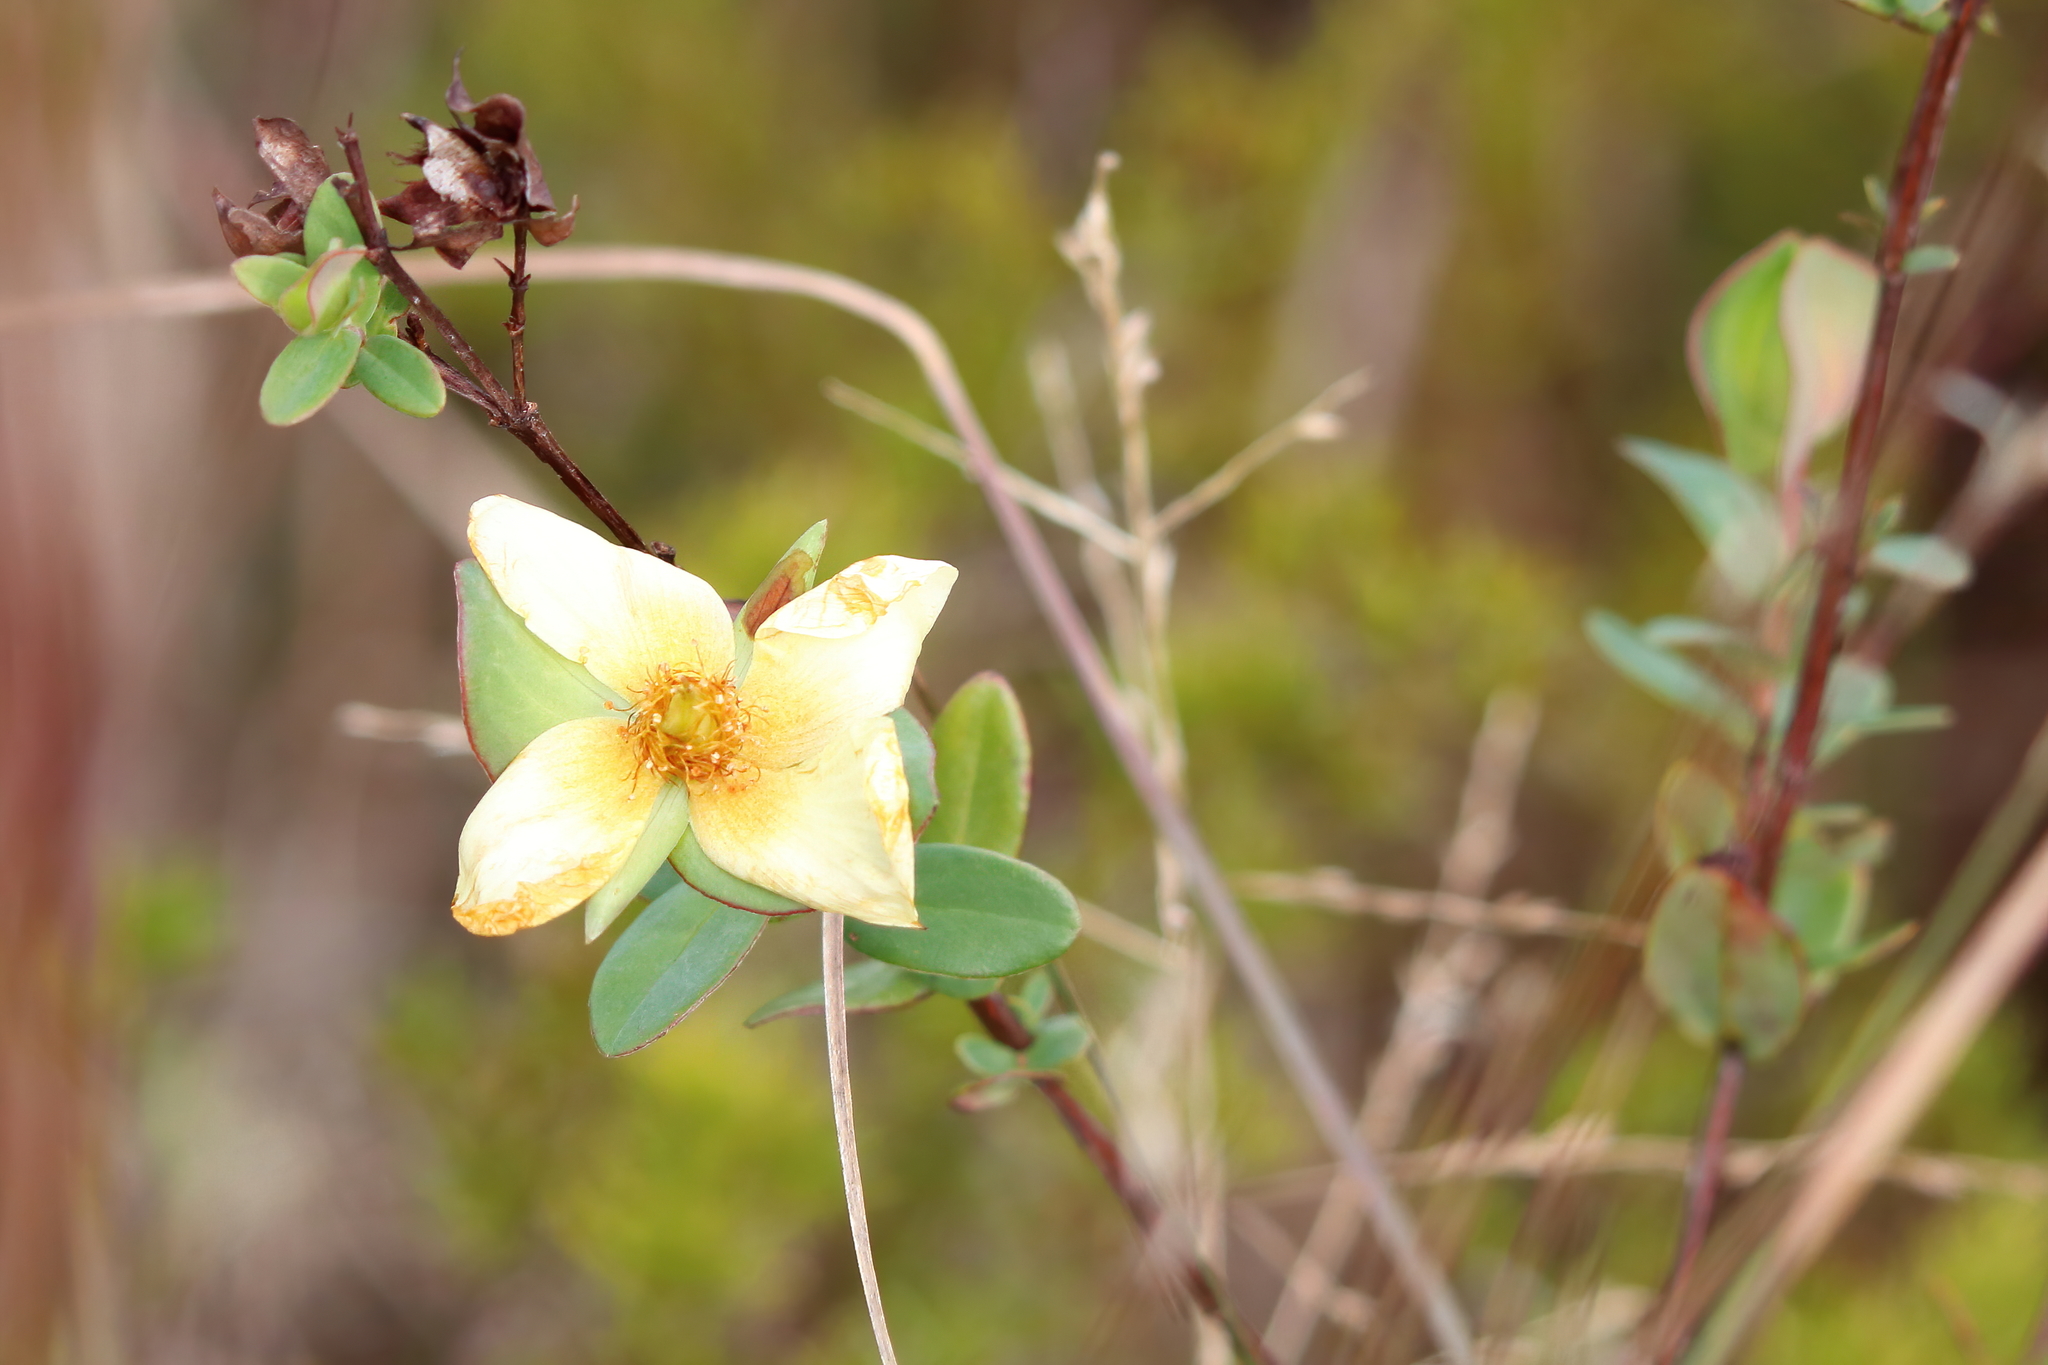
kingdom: Plantae
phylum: Tracheophyta
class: Magnoliopsida
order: Malpighiales
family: Hypericaceae
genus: Hypericum
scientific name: Hypericum crux-andreae
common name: St.-peter's-wort
